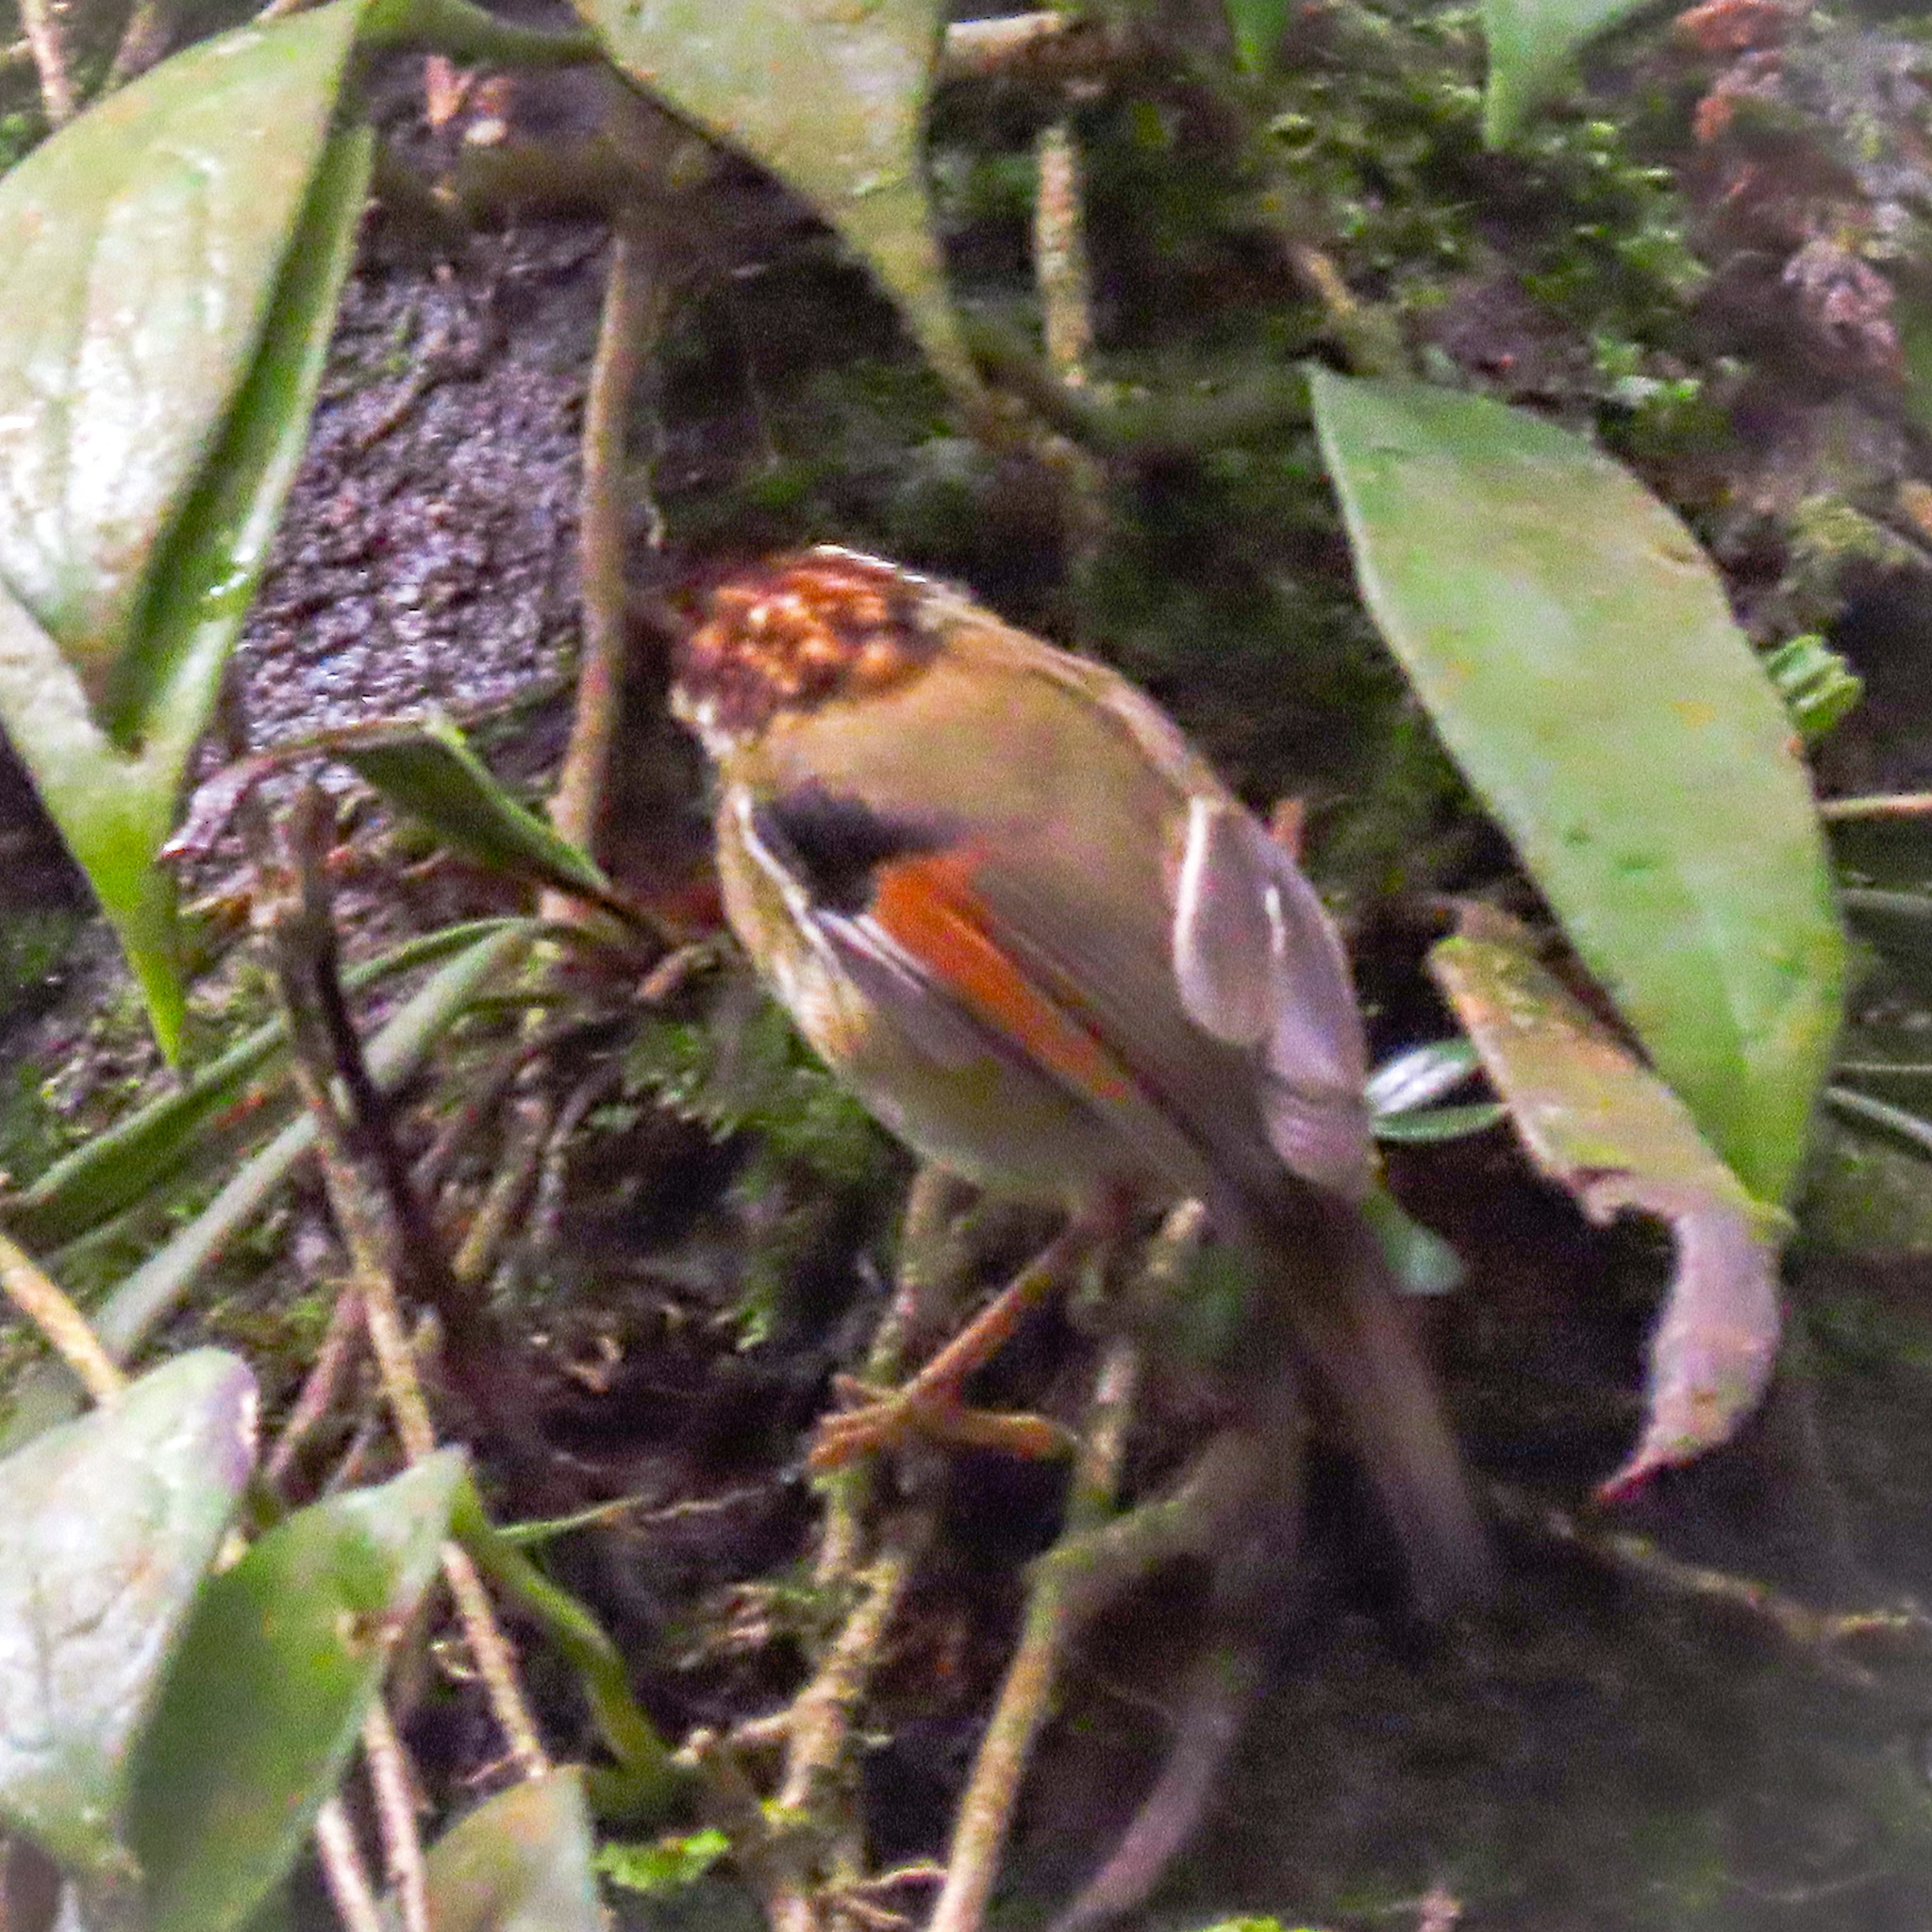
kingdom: Animalia
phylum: Chordata
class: Aves
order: Passeriformes
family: Pellorneidae
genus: Alcippe
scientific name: Alcippe castaneceps
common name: Rufous-winged fulvetta
